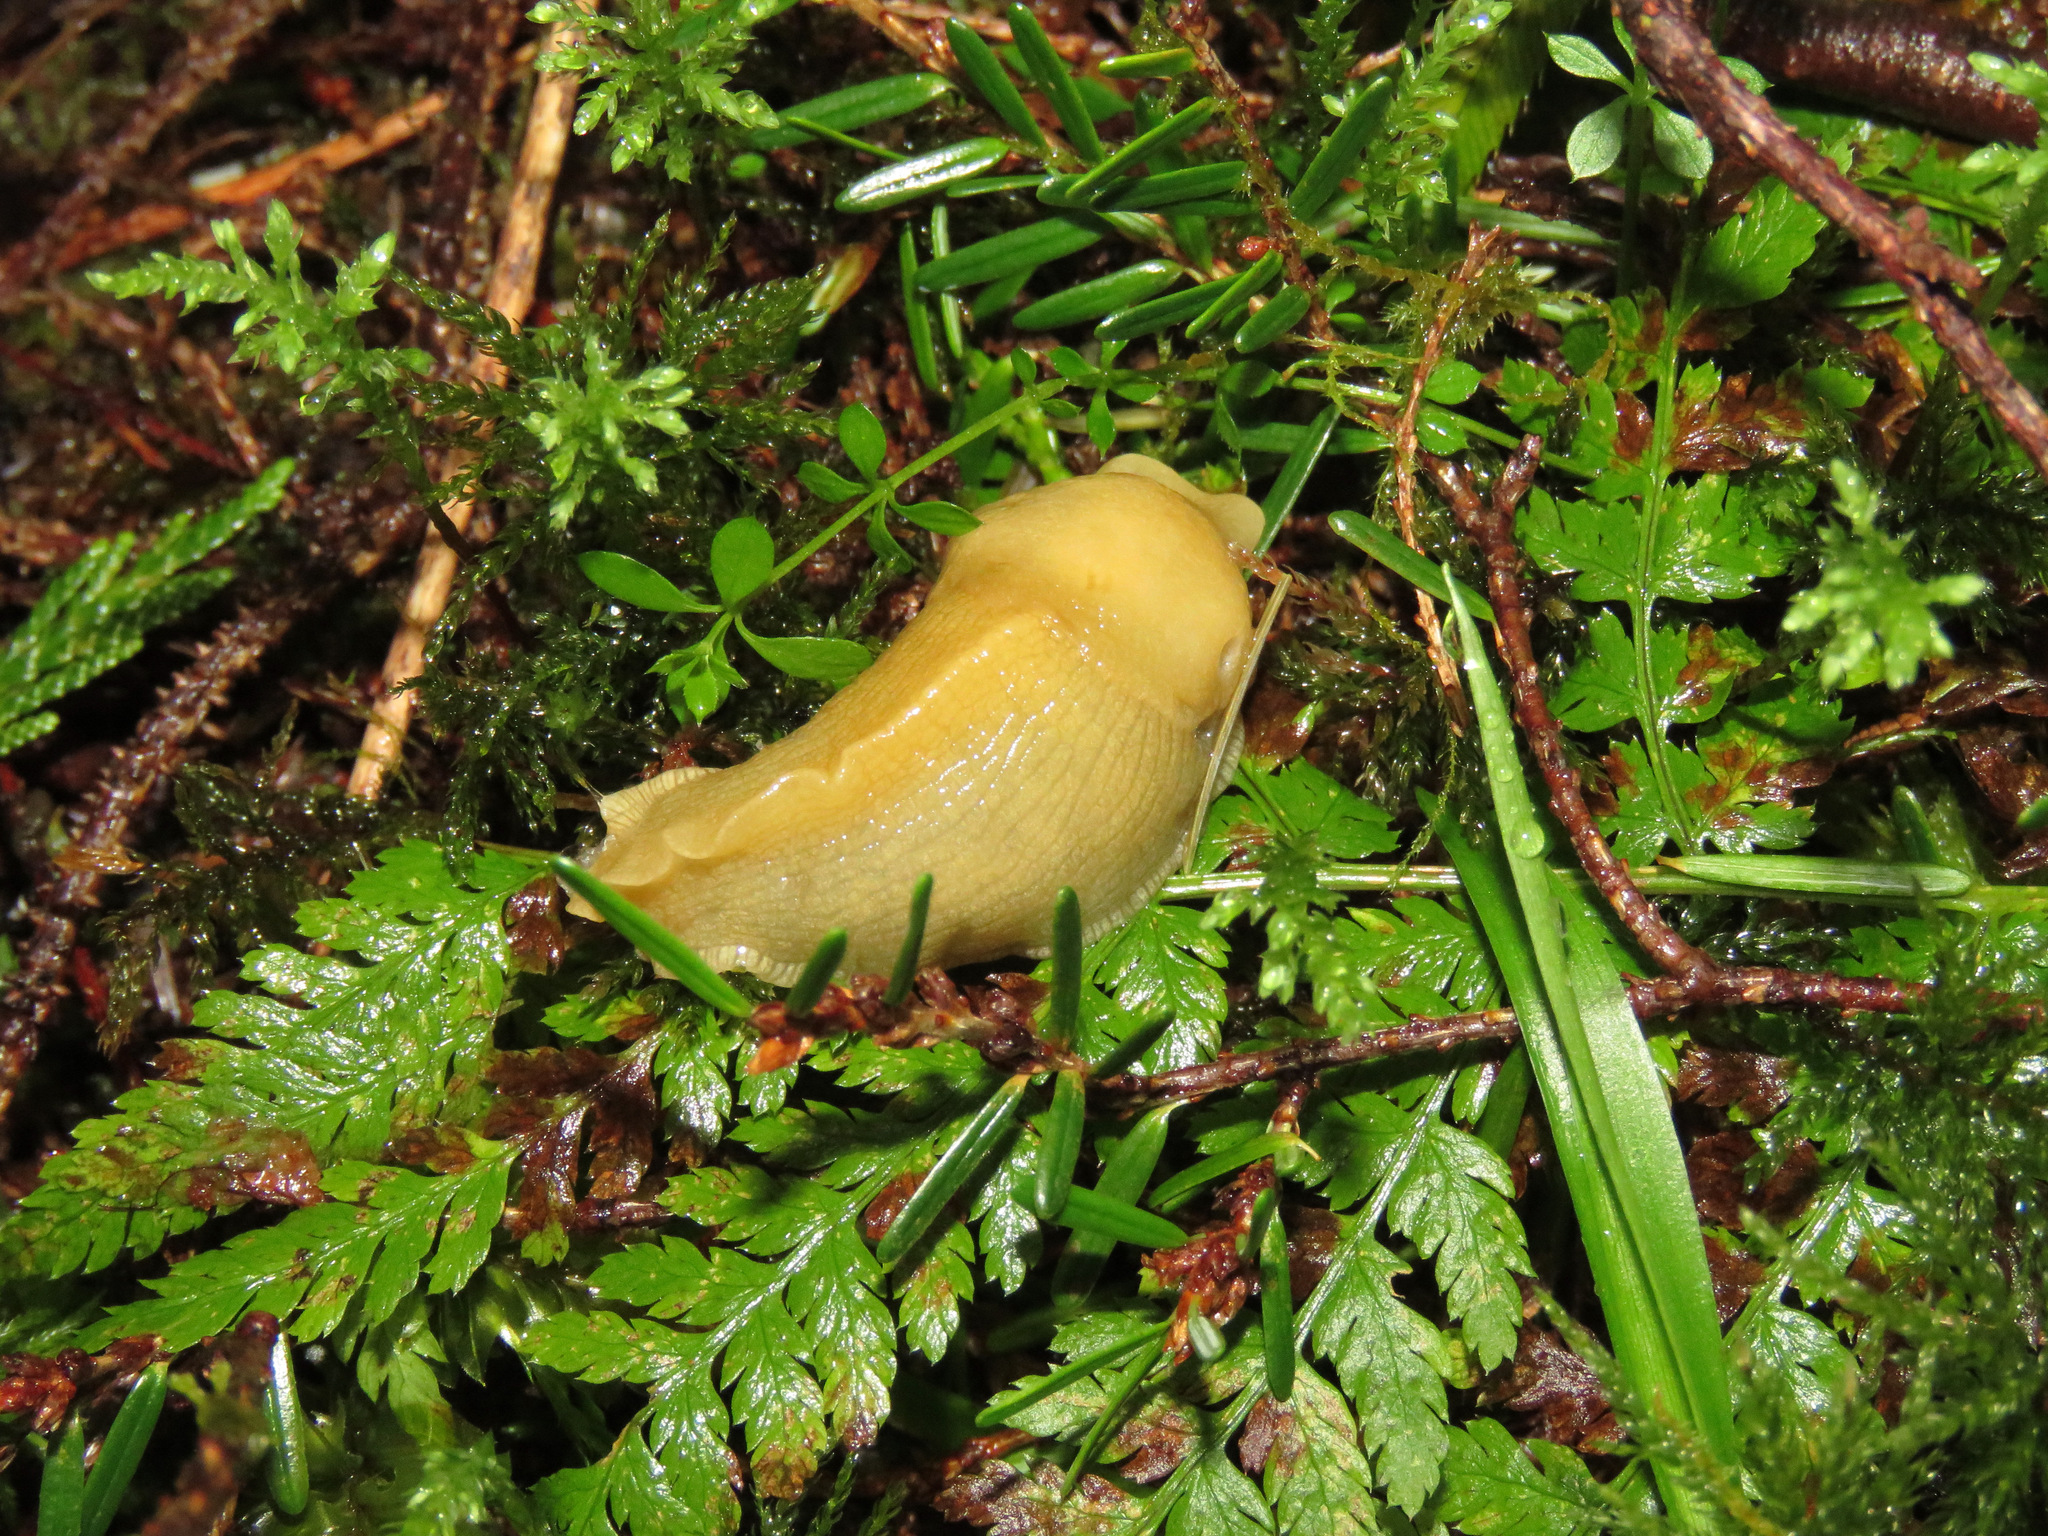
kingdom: Animalia
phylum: Mollusca
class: Gastropoda
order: Stylommatophora
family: Ariolimacidae
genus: Ariolimax
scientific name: Ariolimax columbianus
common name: Pacific banana slug
